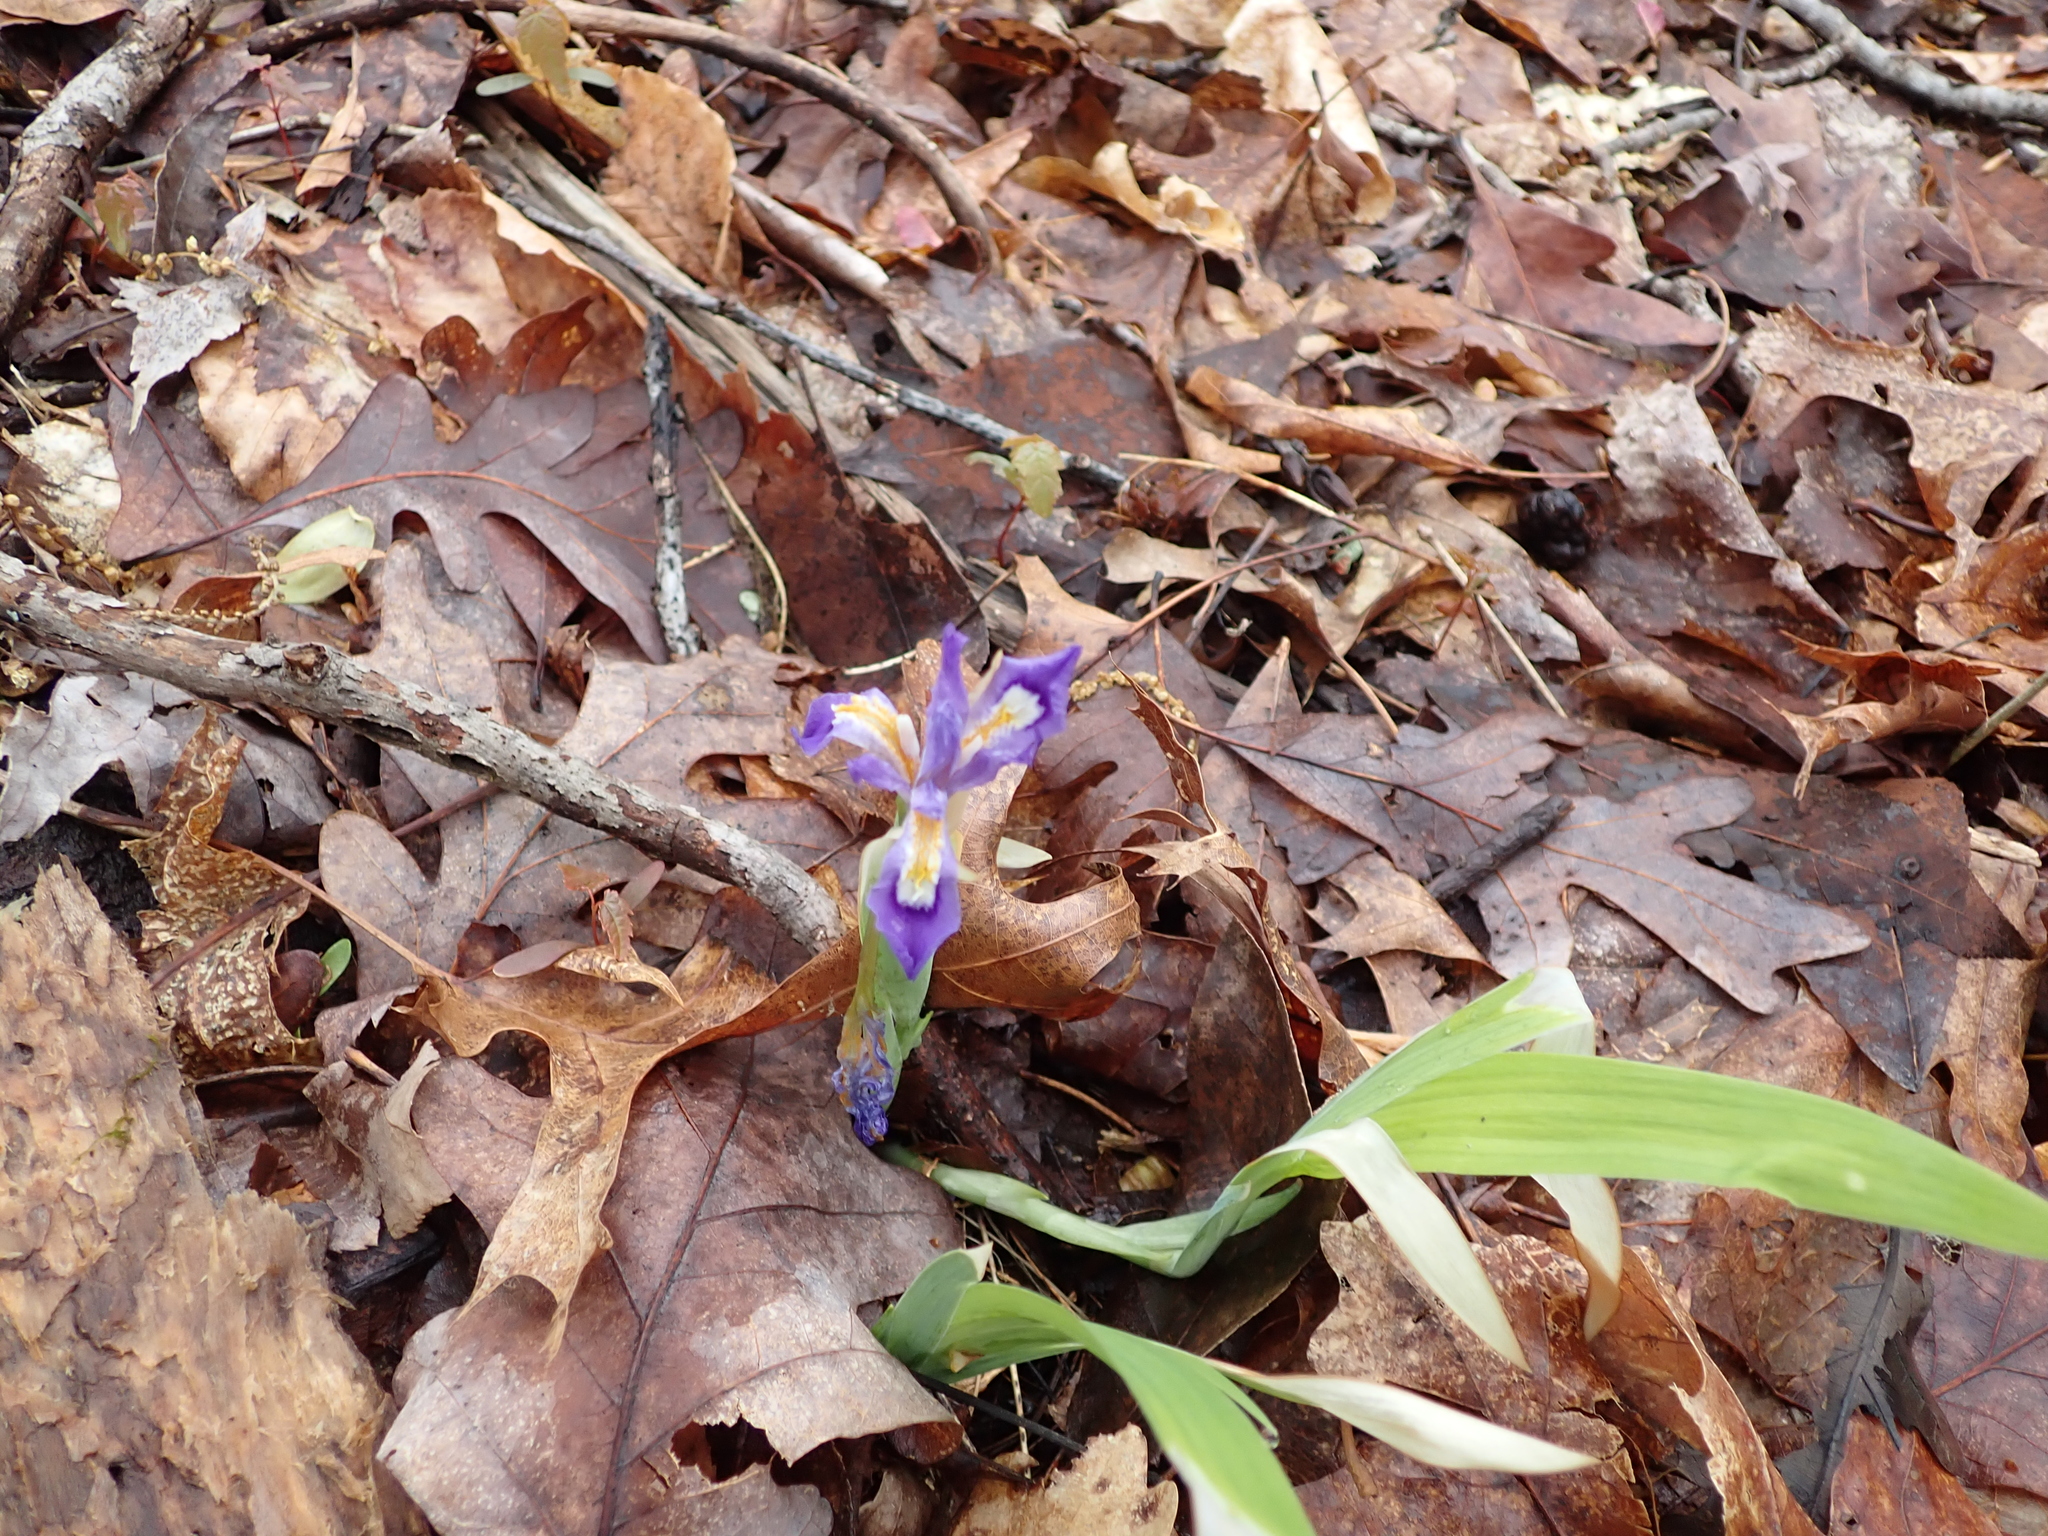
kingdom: Plantae
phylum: Tracheophyta
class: Liliopsida
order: Asparagales
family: Iridaceae
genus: Iris
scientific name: Iris cristata
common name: Crested iris
